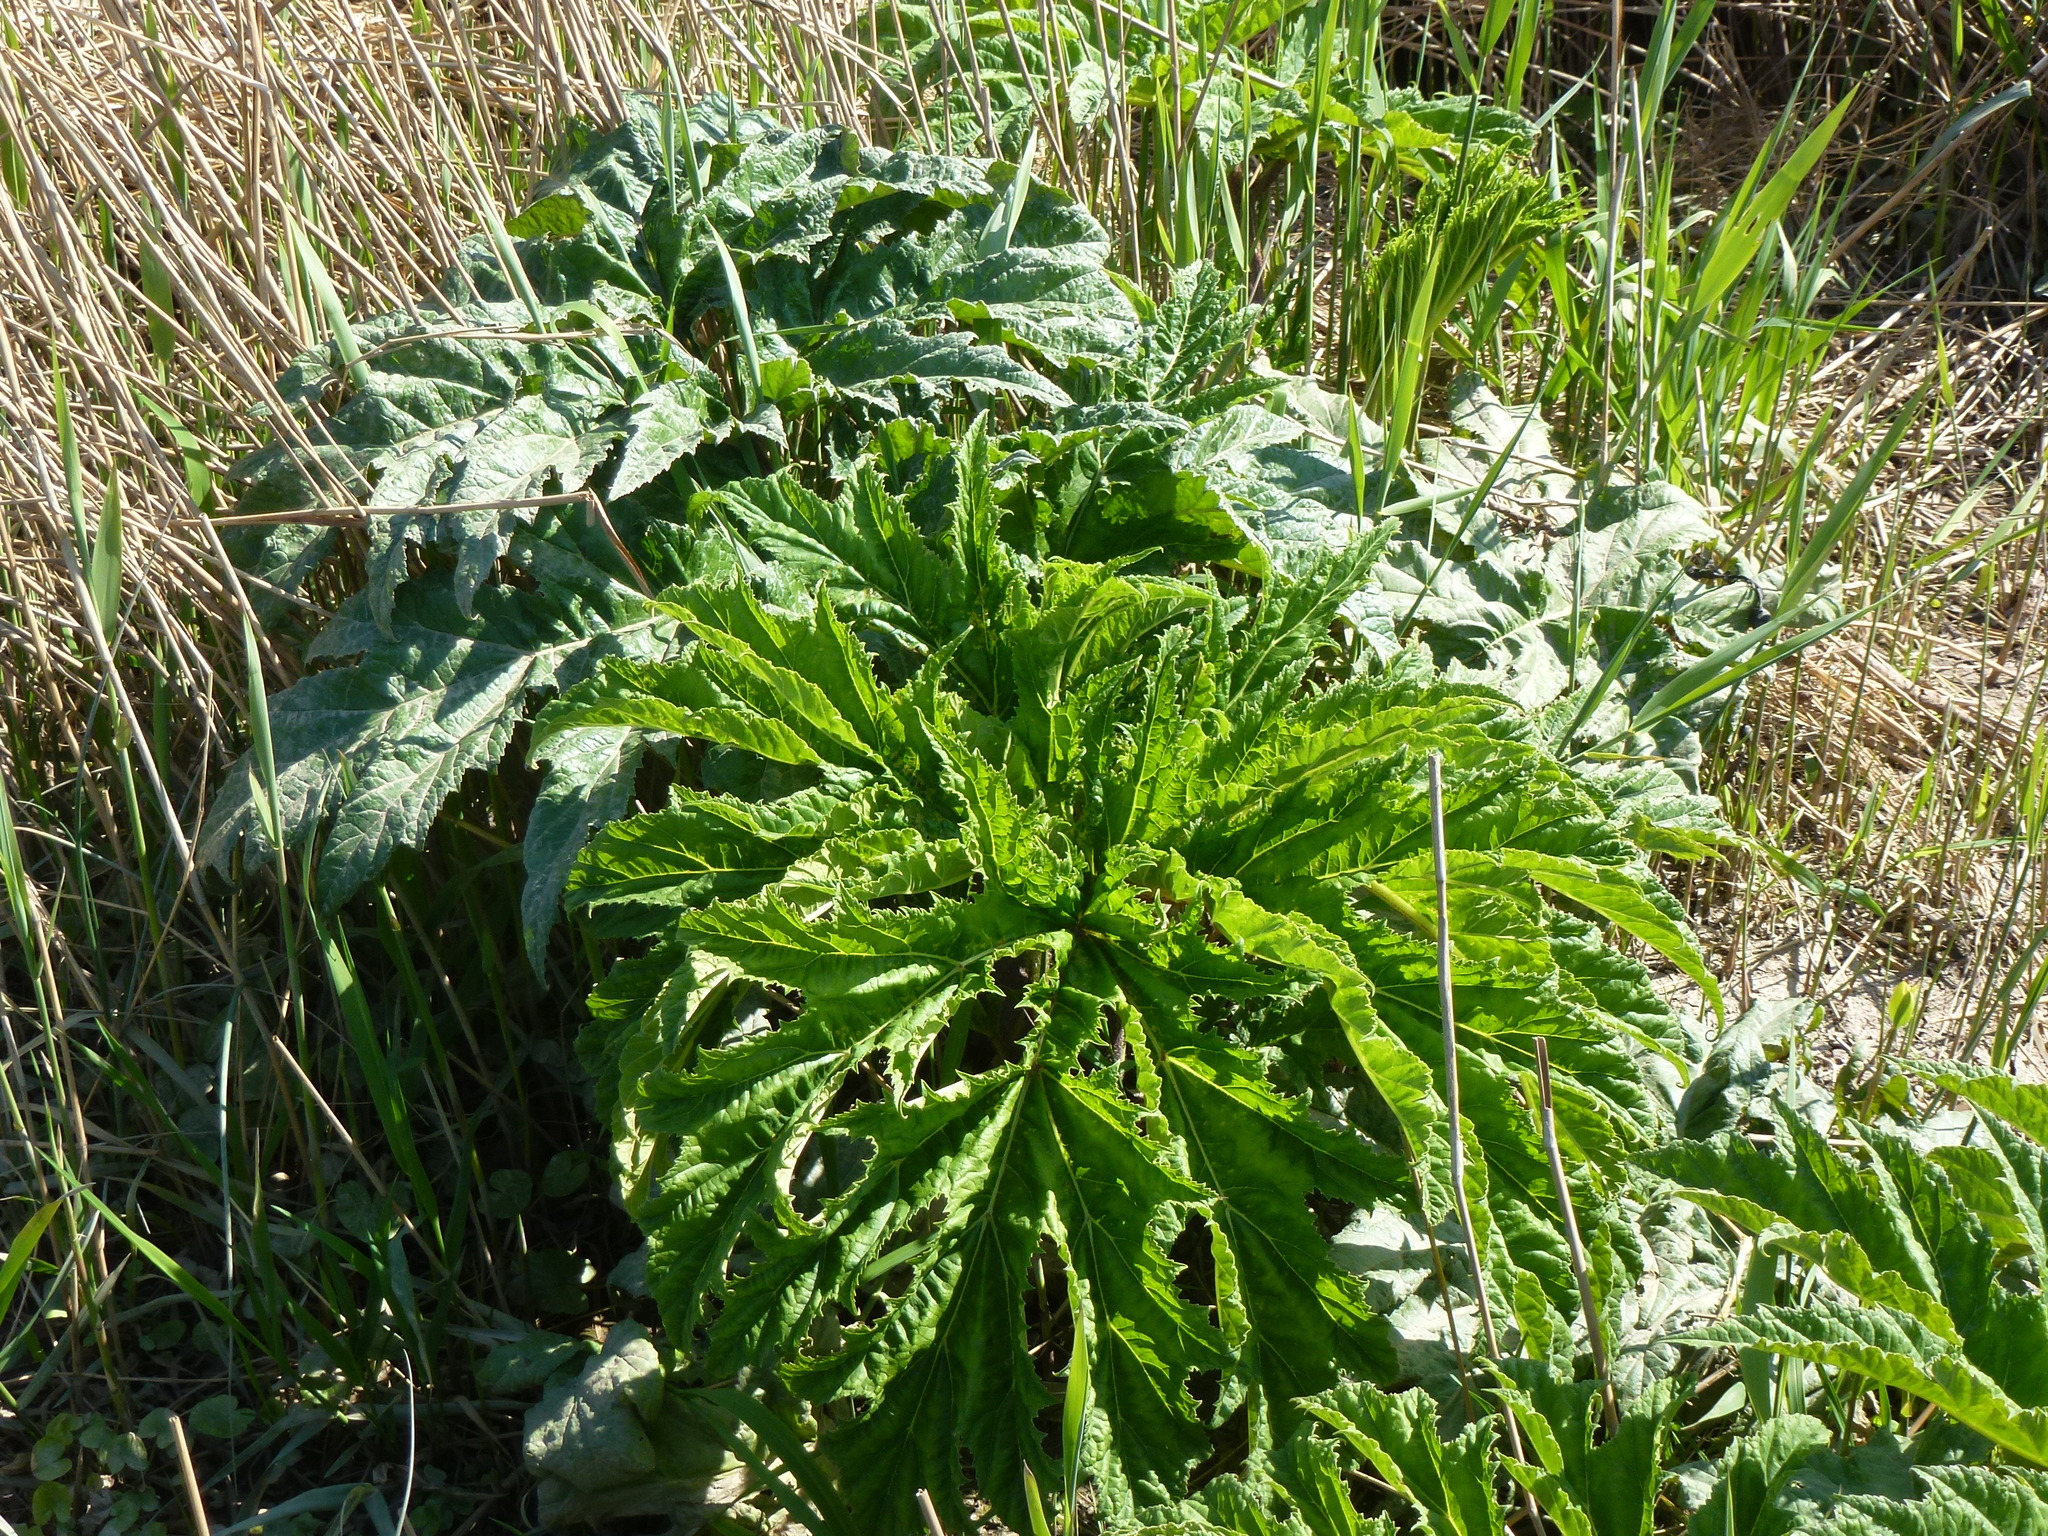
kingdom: Plantae
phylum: Tracheophyta
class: Magnoliopsida
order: Apiales
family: Apiaceae
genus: Heracleum
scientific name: Heracleum mantegazzianum
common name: Giant hogweed
